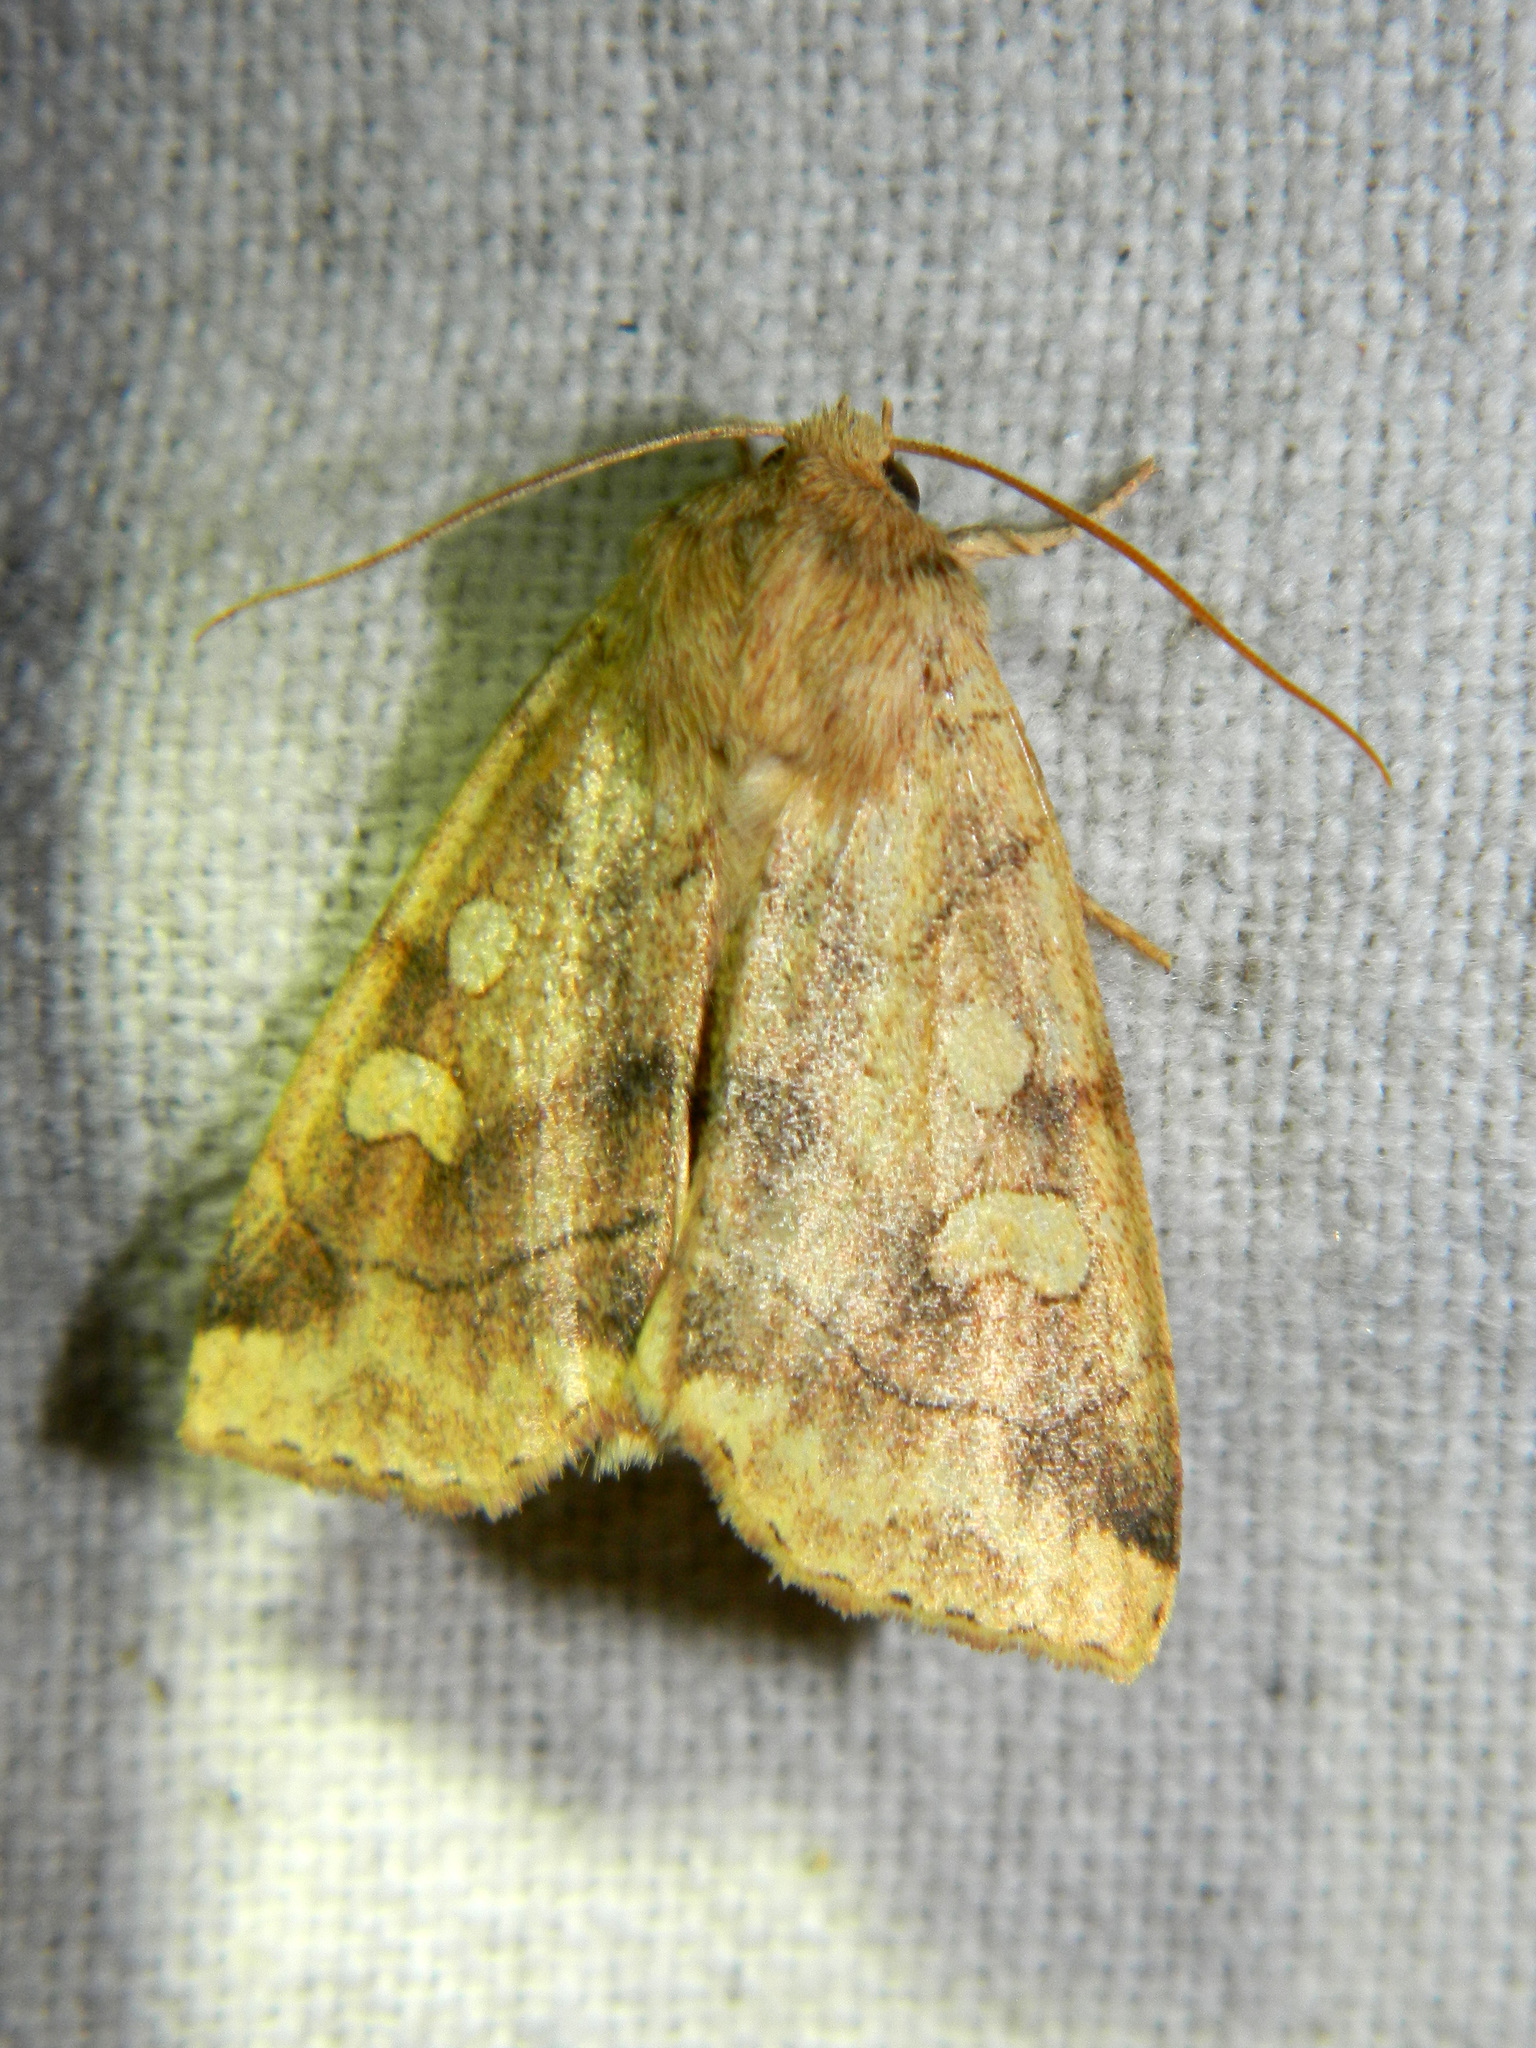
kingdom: Animalia
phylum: Arthropoda
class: Insecta
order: Lepidoptera
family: Noctuidae
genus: Enargia
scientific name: Enargia decolor
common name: Aspen twoleaf tier moth
